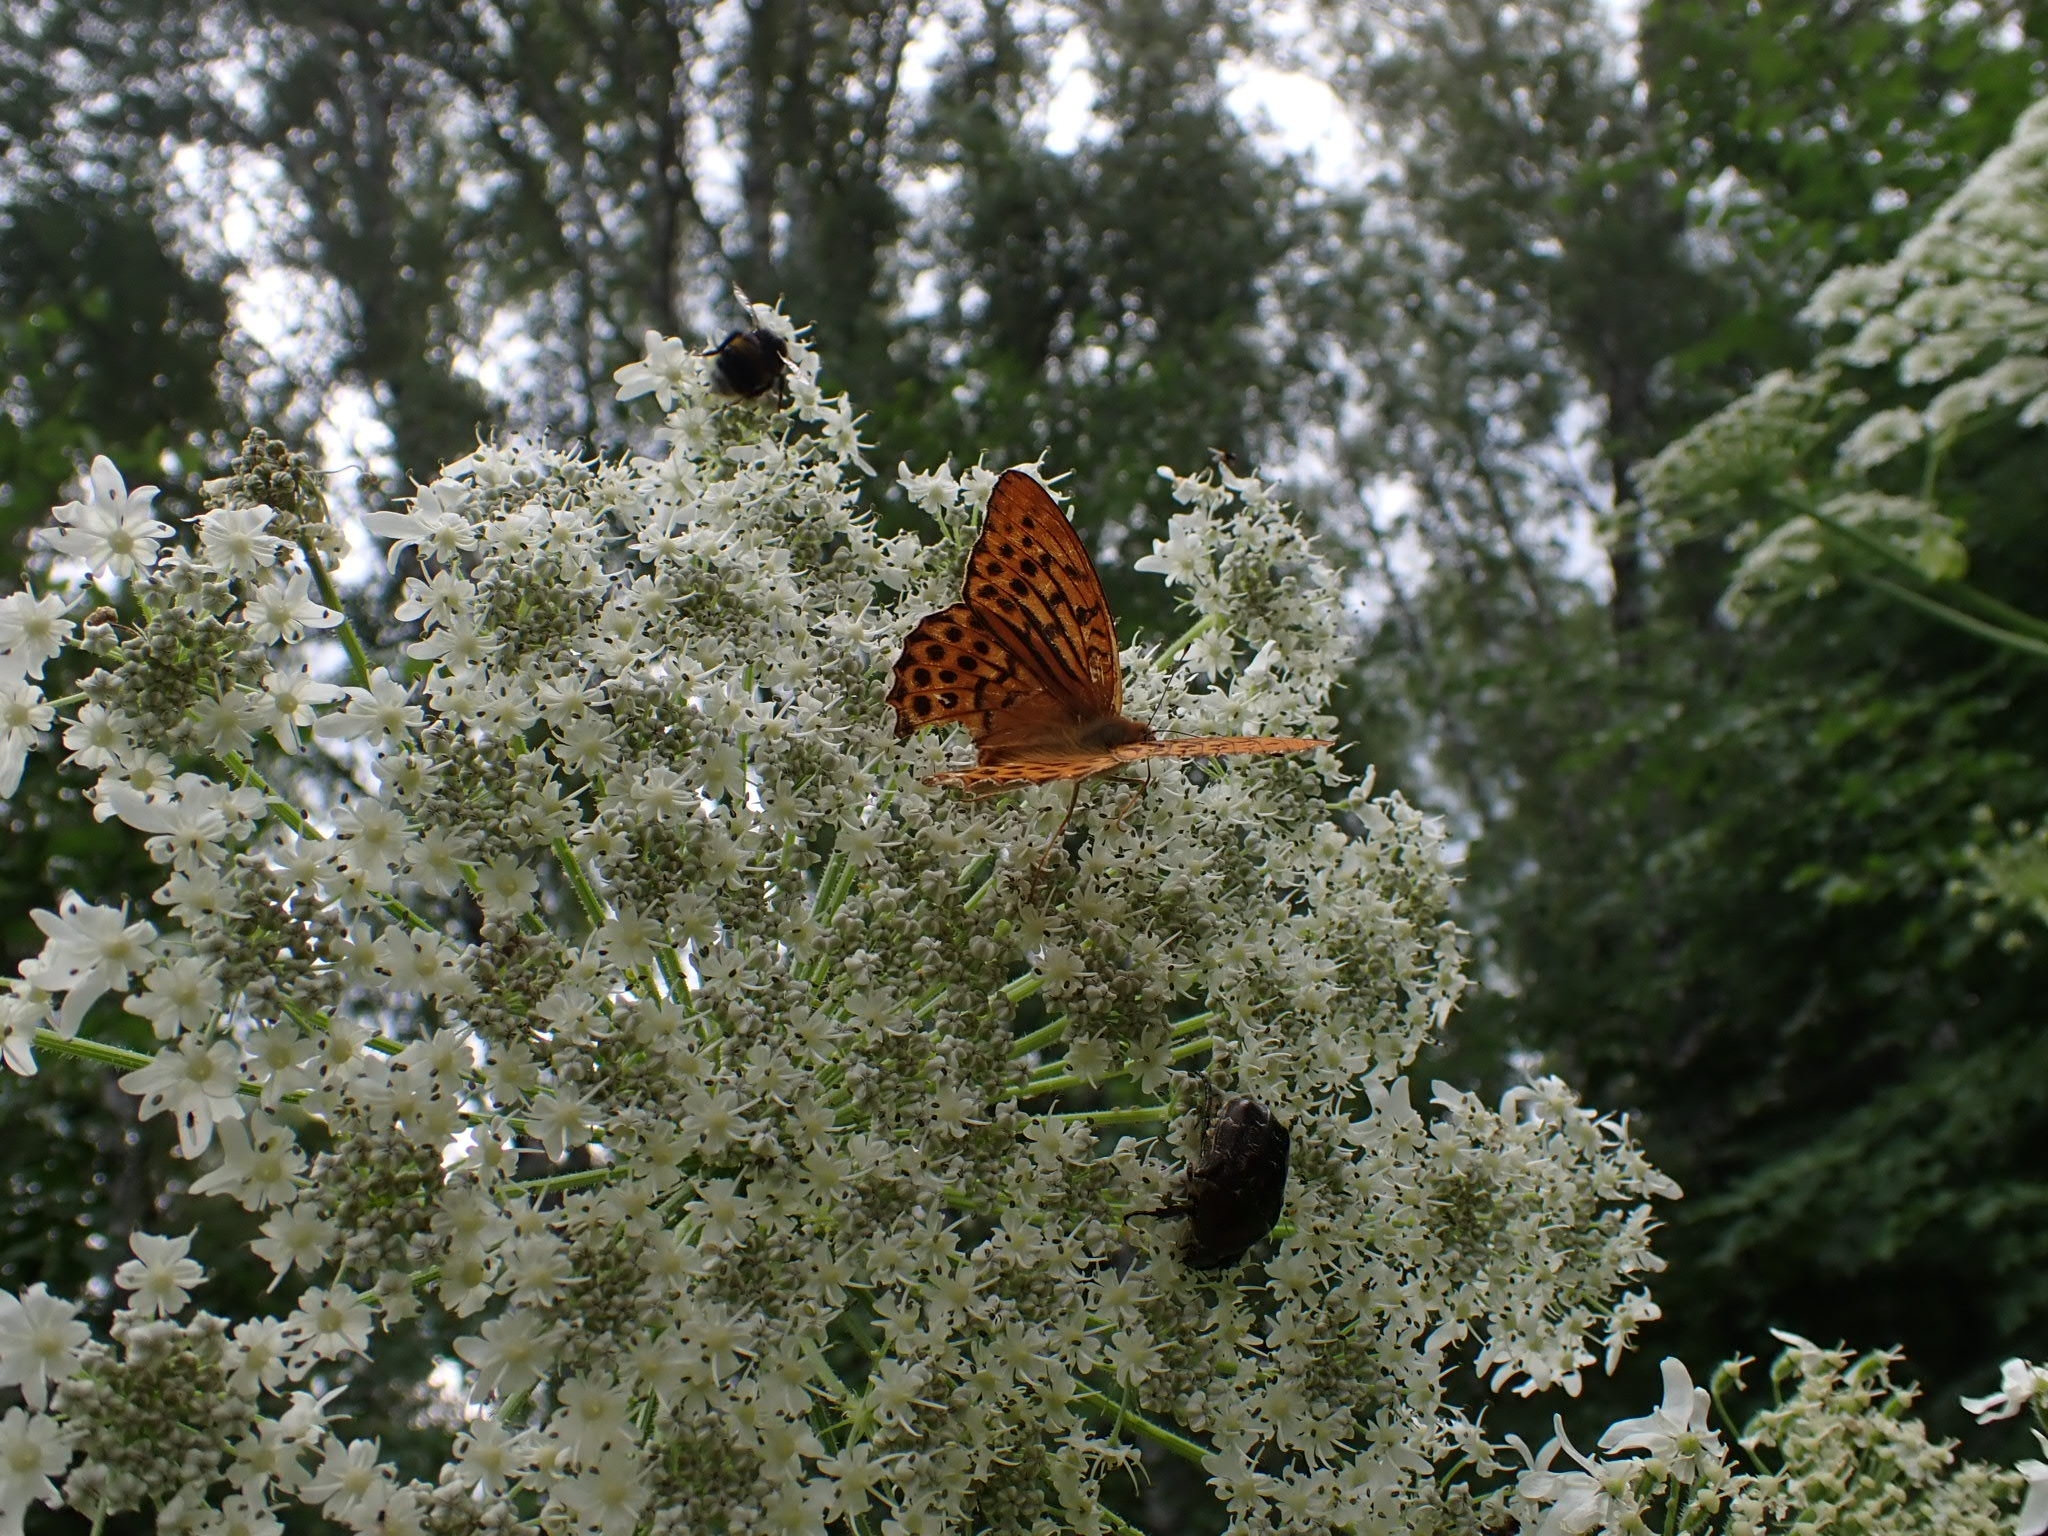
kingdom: Animalia
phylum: Arthropoda
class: Insecta
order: Lepidoptera
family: Nymphalidae
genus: Argynnis
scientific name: Argynnis paphia
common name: Silver-washed fritillary
